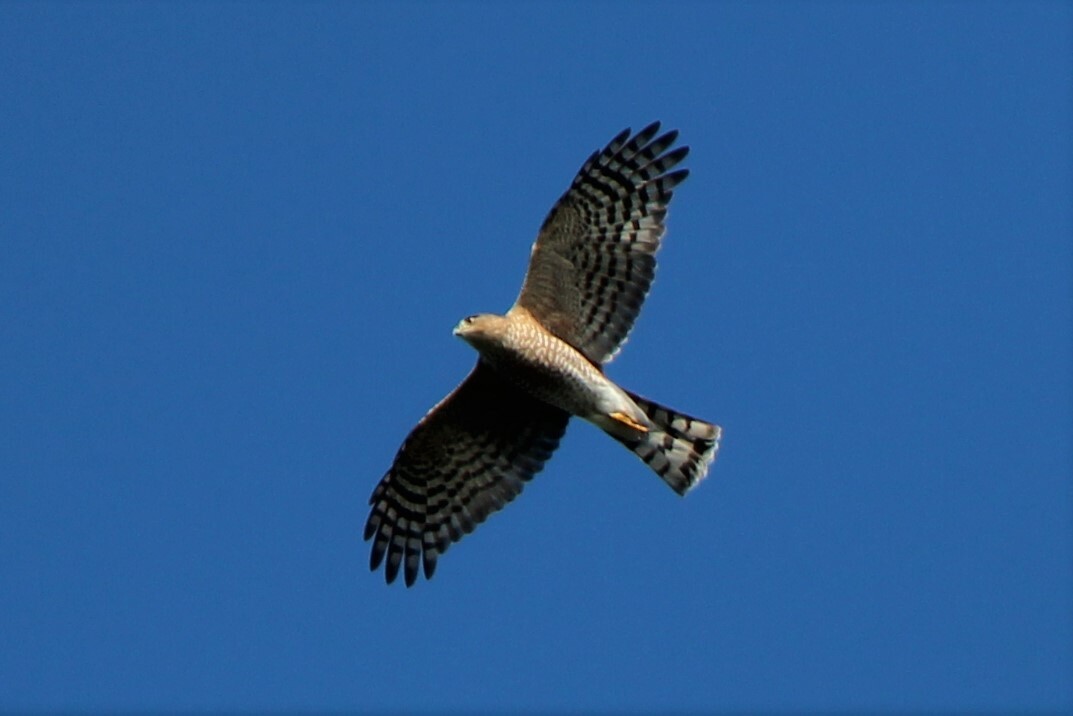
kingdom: Animalia
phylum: Chordata
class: Aves
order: Accipitriformes
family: Accipitridae
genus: Accipiter
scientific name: Accipiter striatus
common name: Sharp-shinned hawk
